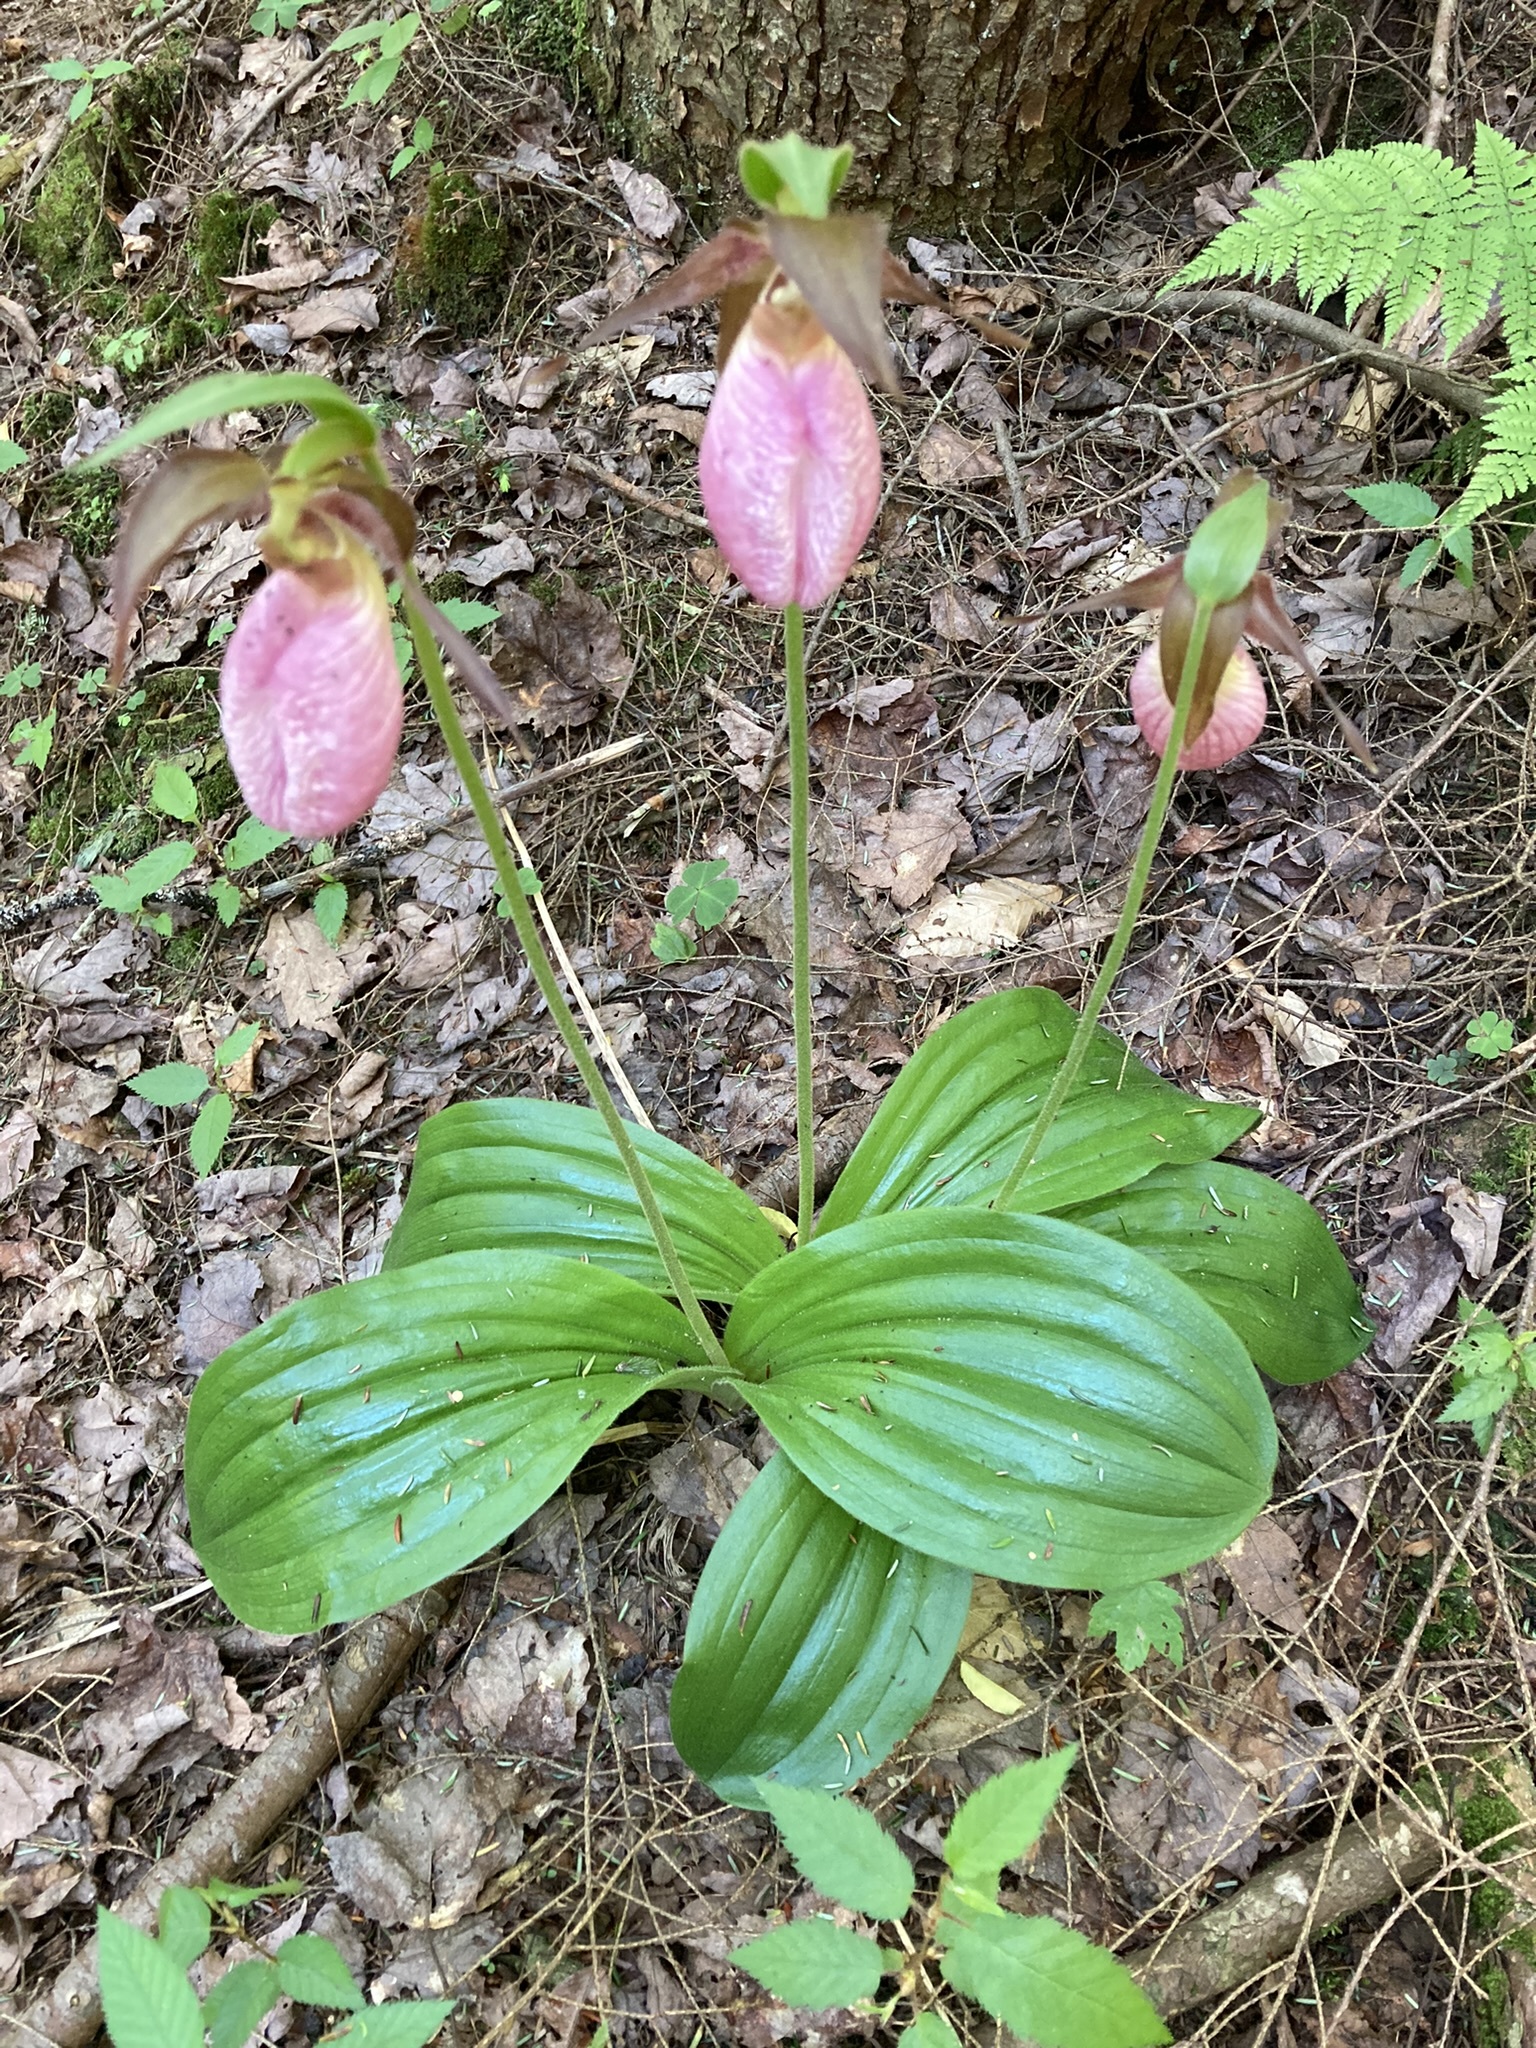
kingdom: Plantae
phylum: Tracheophyta
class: Liliopsida
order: Asparagales
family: Orchidaceae
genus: Cypripedium
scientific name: Cypripedium acaule
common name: Pink lady's-slipper
